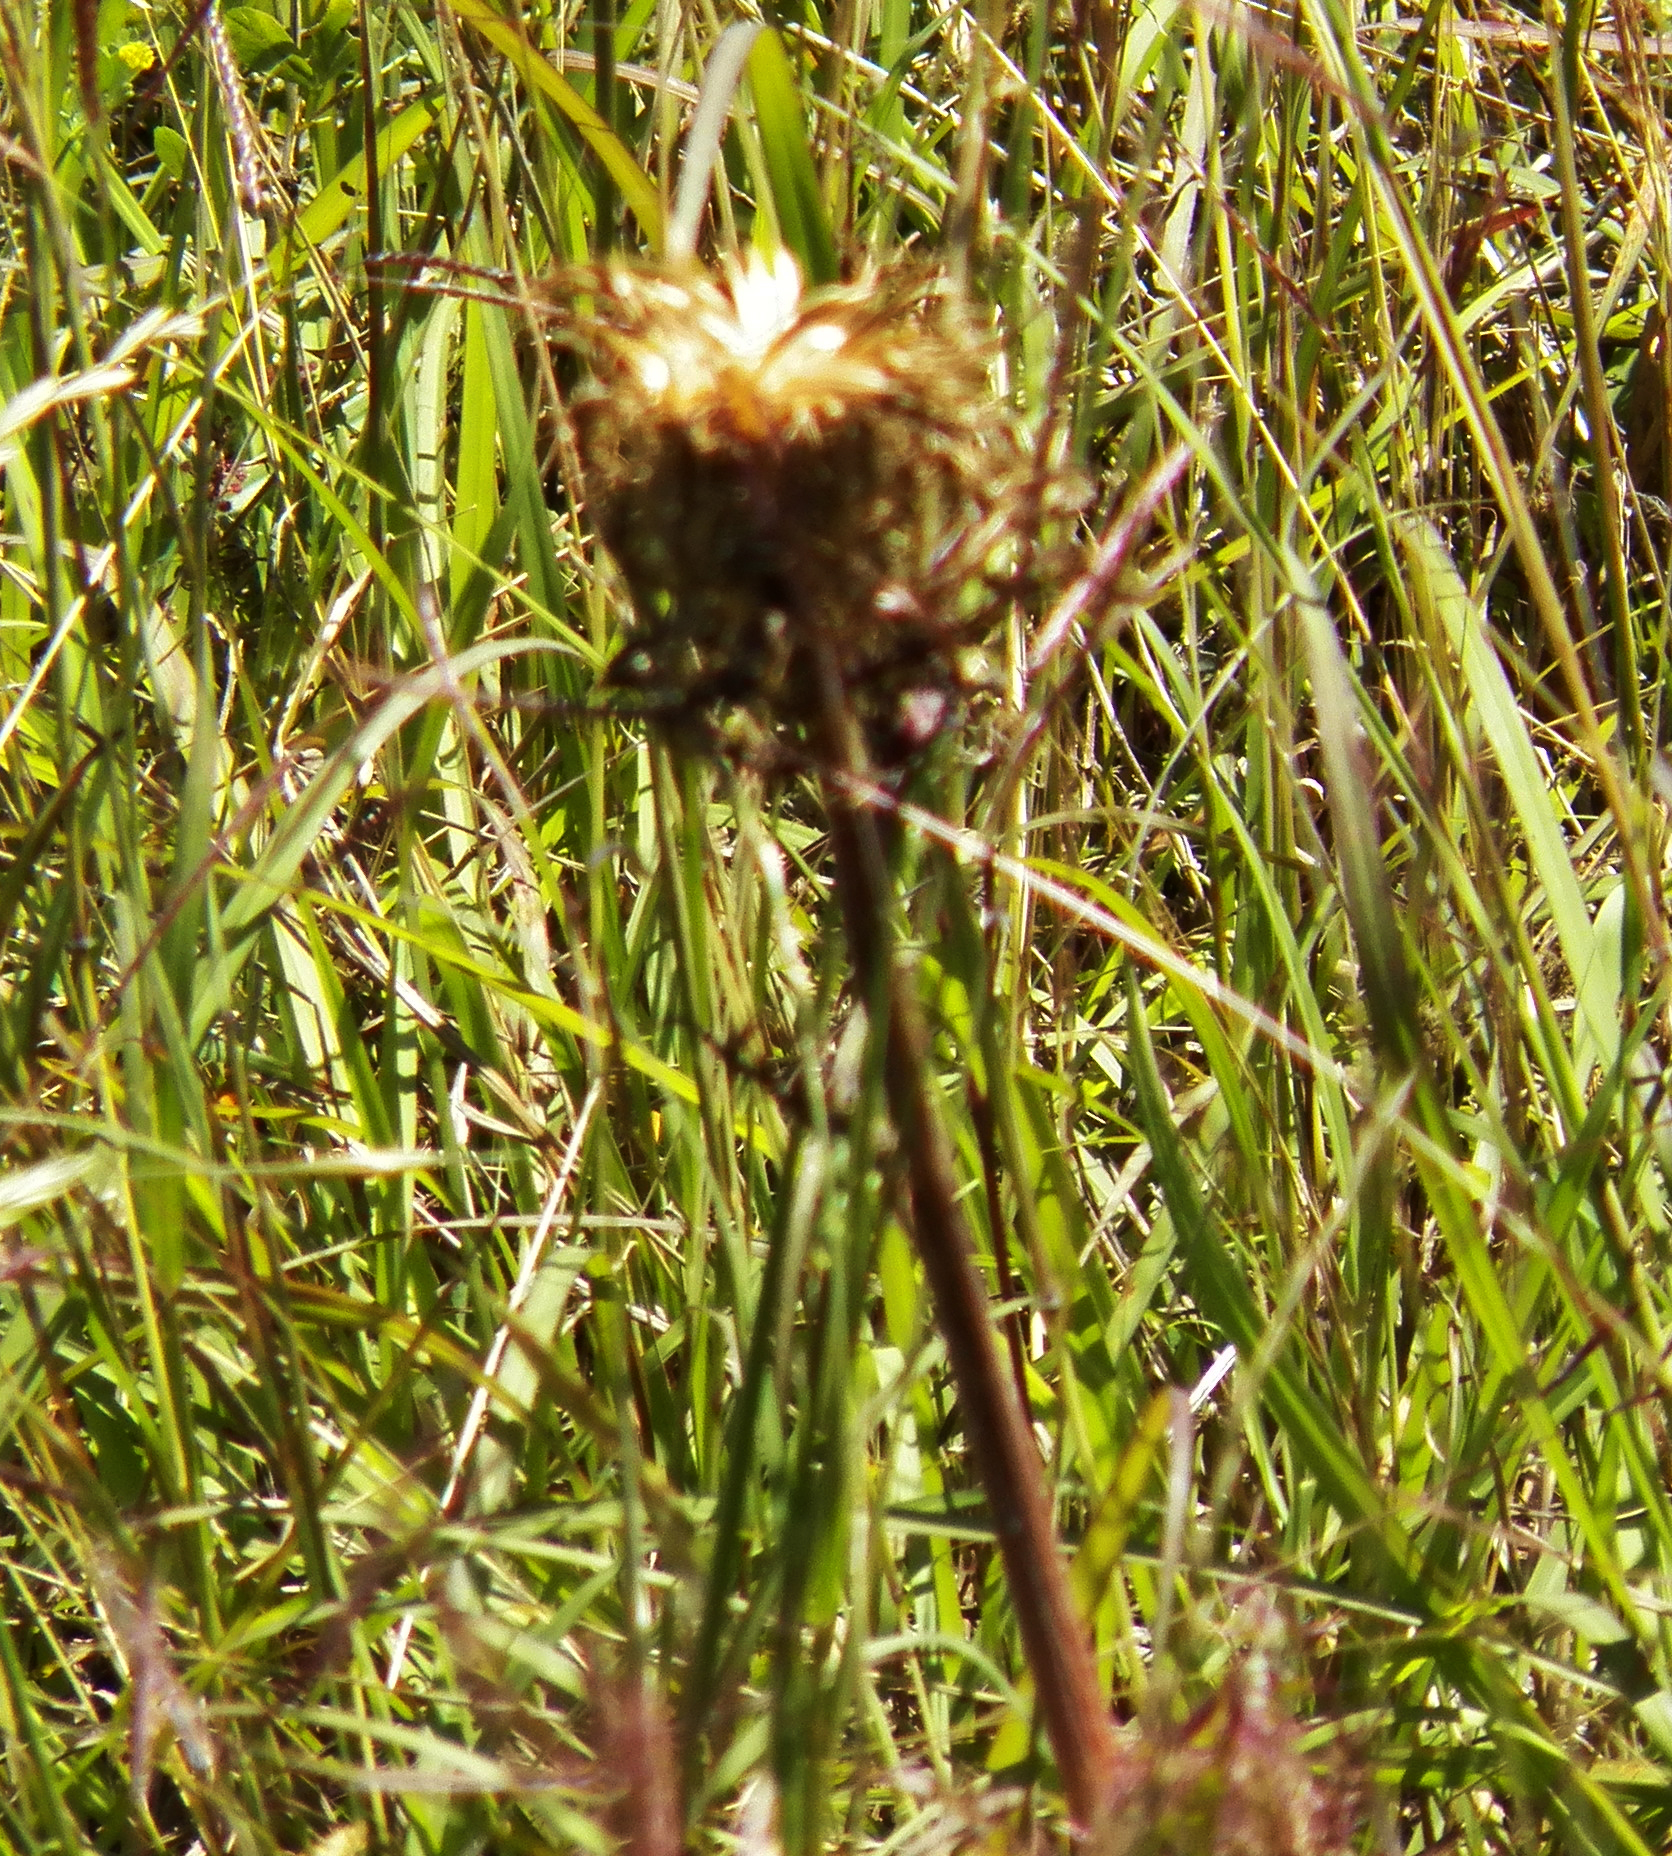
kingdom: Plantae
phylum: Tracheophyta
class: Magnoliopsida
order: Asterales
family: Asteraceae
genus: Cirsium
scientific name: Cirsium horridulum
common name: Bristly thistle
